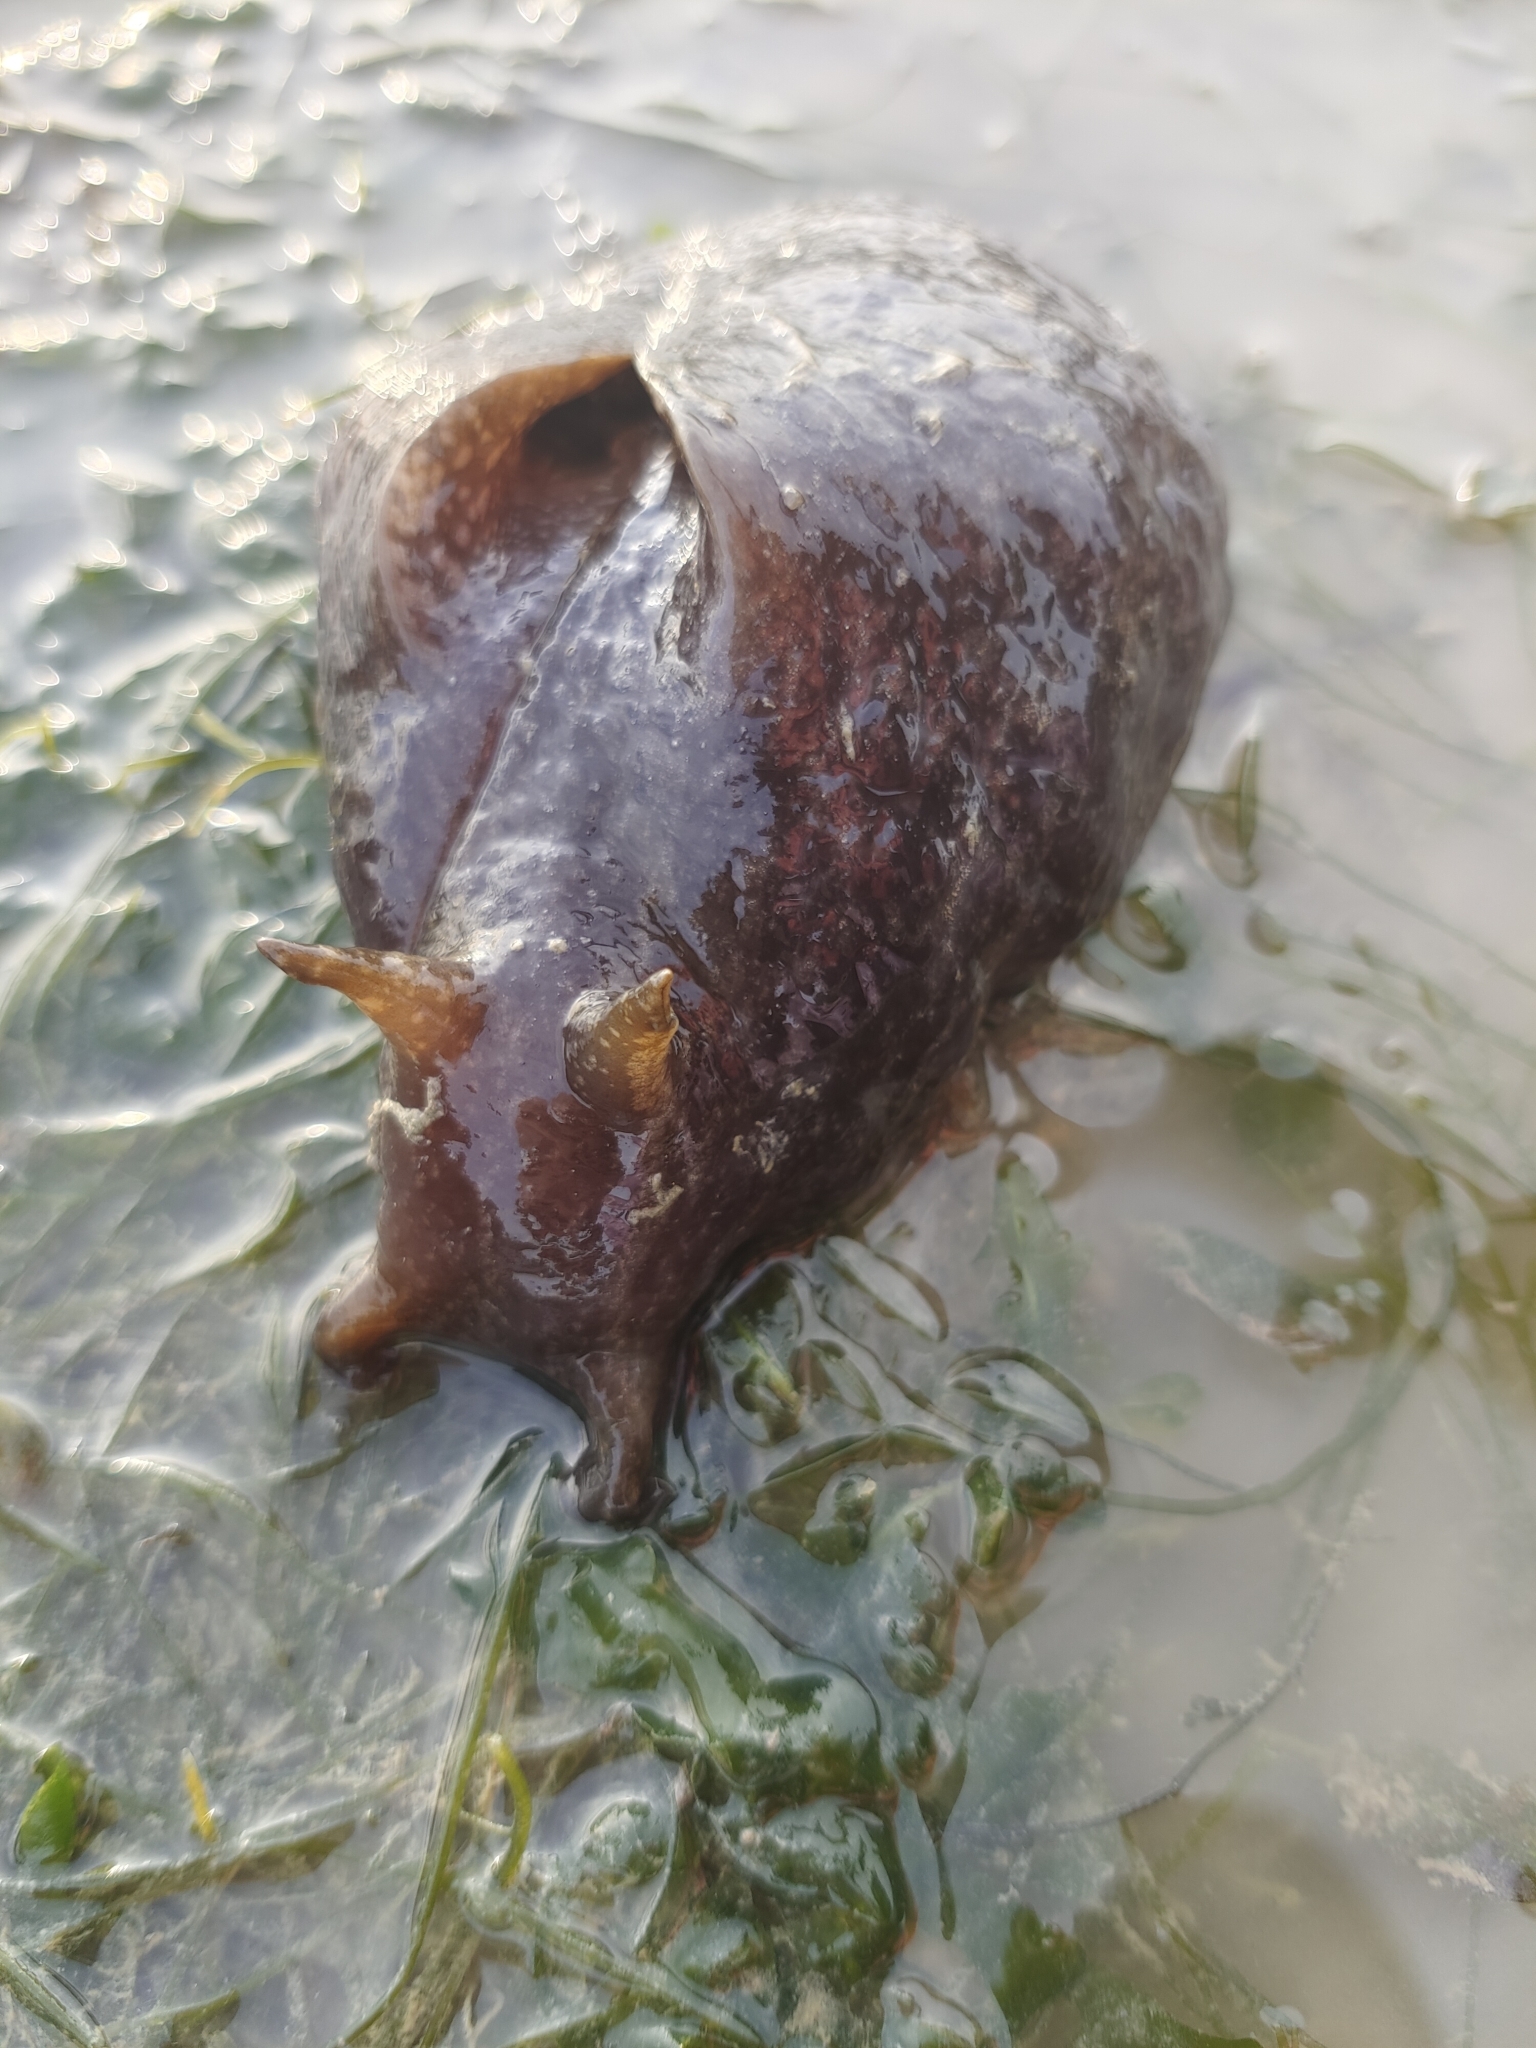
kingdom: Animalia
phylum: Mollusca
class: Gastropoda
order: Aplysiida
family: Aplysiidae
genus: Aplysia
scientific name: Aplysia oculifera
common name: Spotted sea hare
